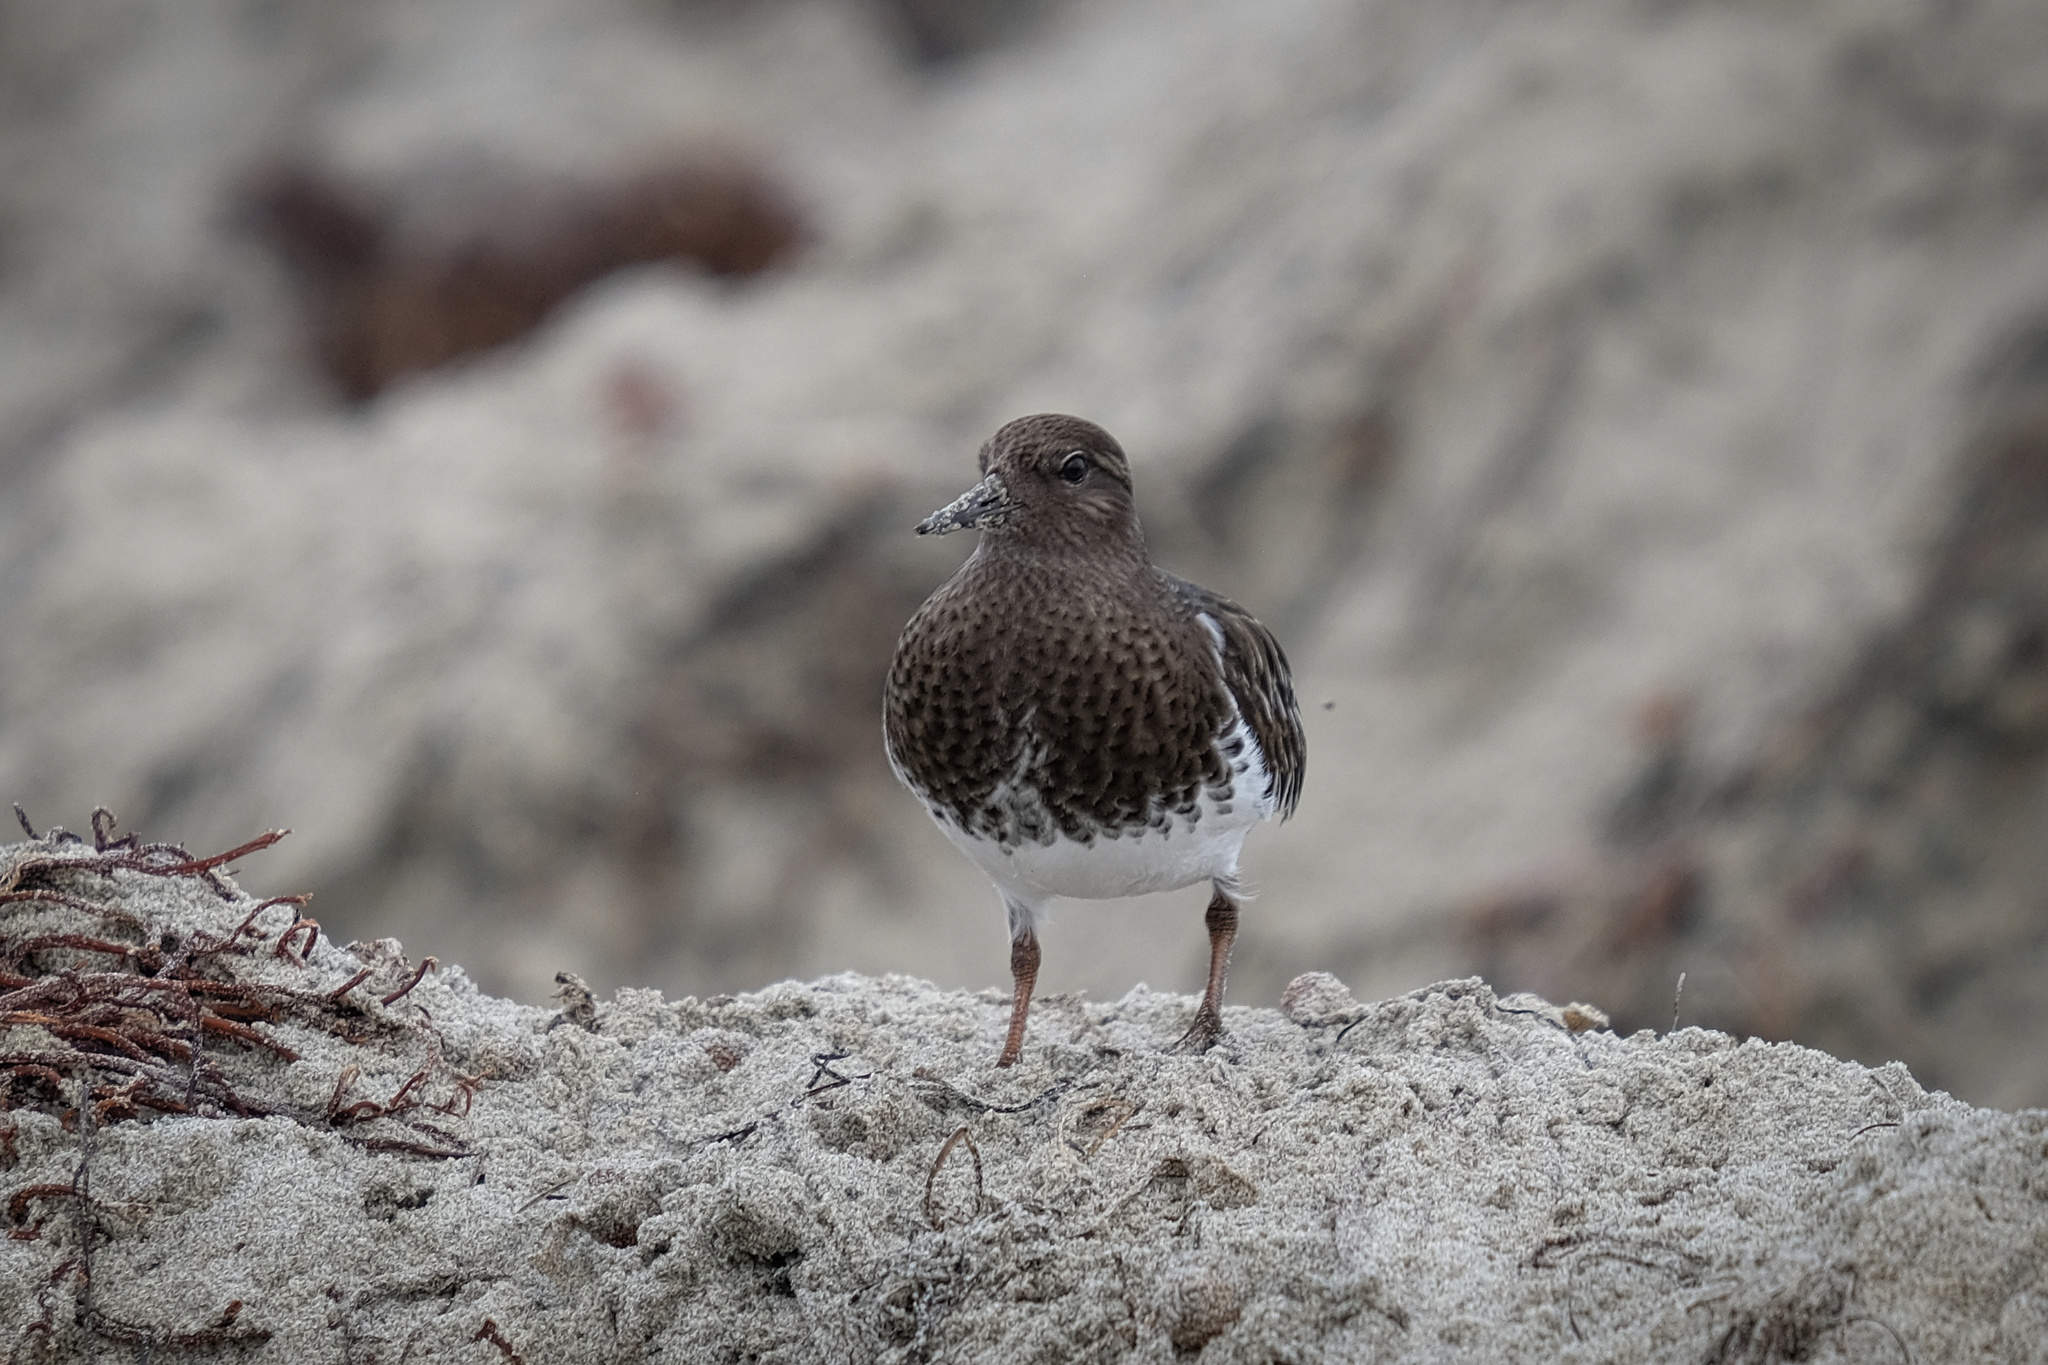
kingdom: Animalia
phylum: Chordata
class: Aves
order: Charadriiformes
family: Scolopacidae
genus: Arenaria
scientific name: Arenaria melanocephala
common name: Black turnstone
